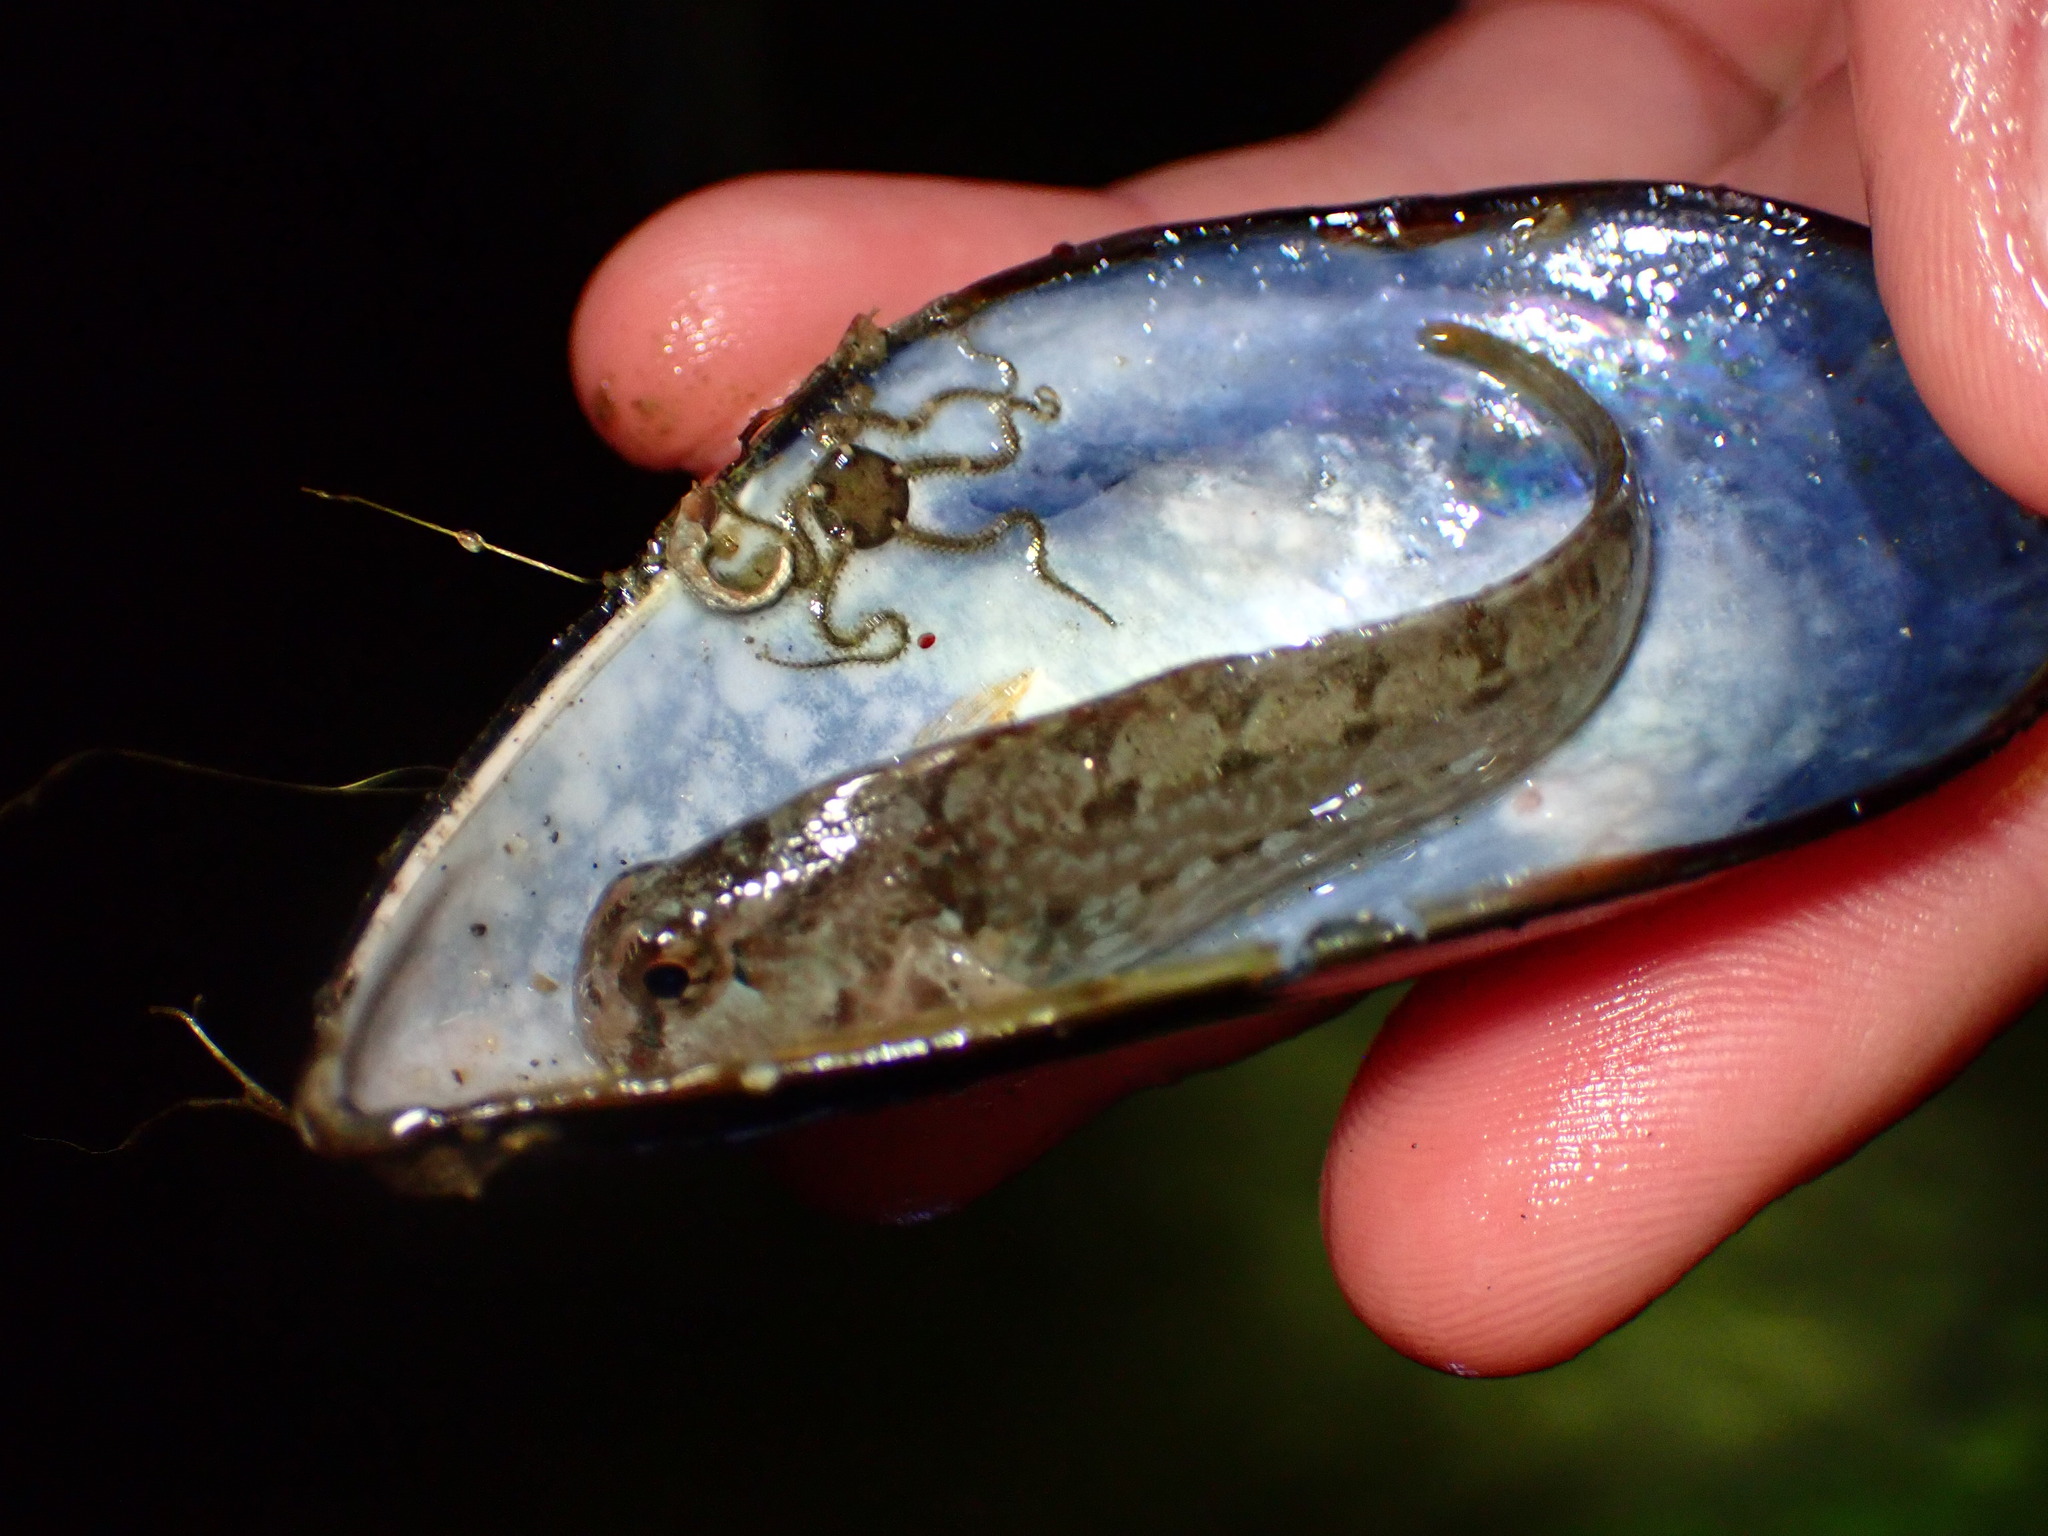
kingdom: Animalia
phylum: Chordata
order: Perciformes
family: Blenniidae
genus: Hypsoblennius
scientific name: Hypsoblennius gentilis
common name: Bay blenny
